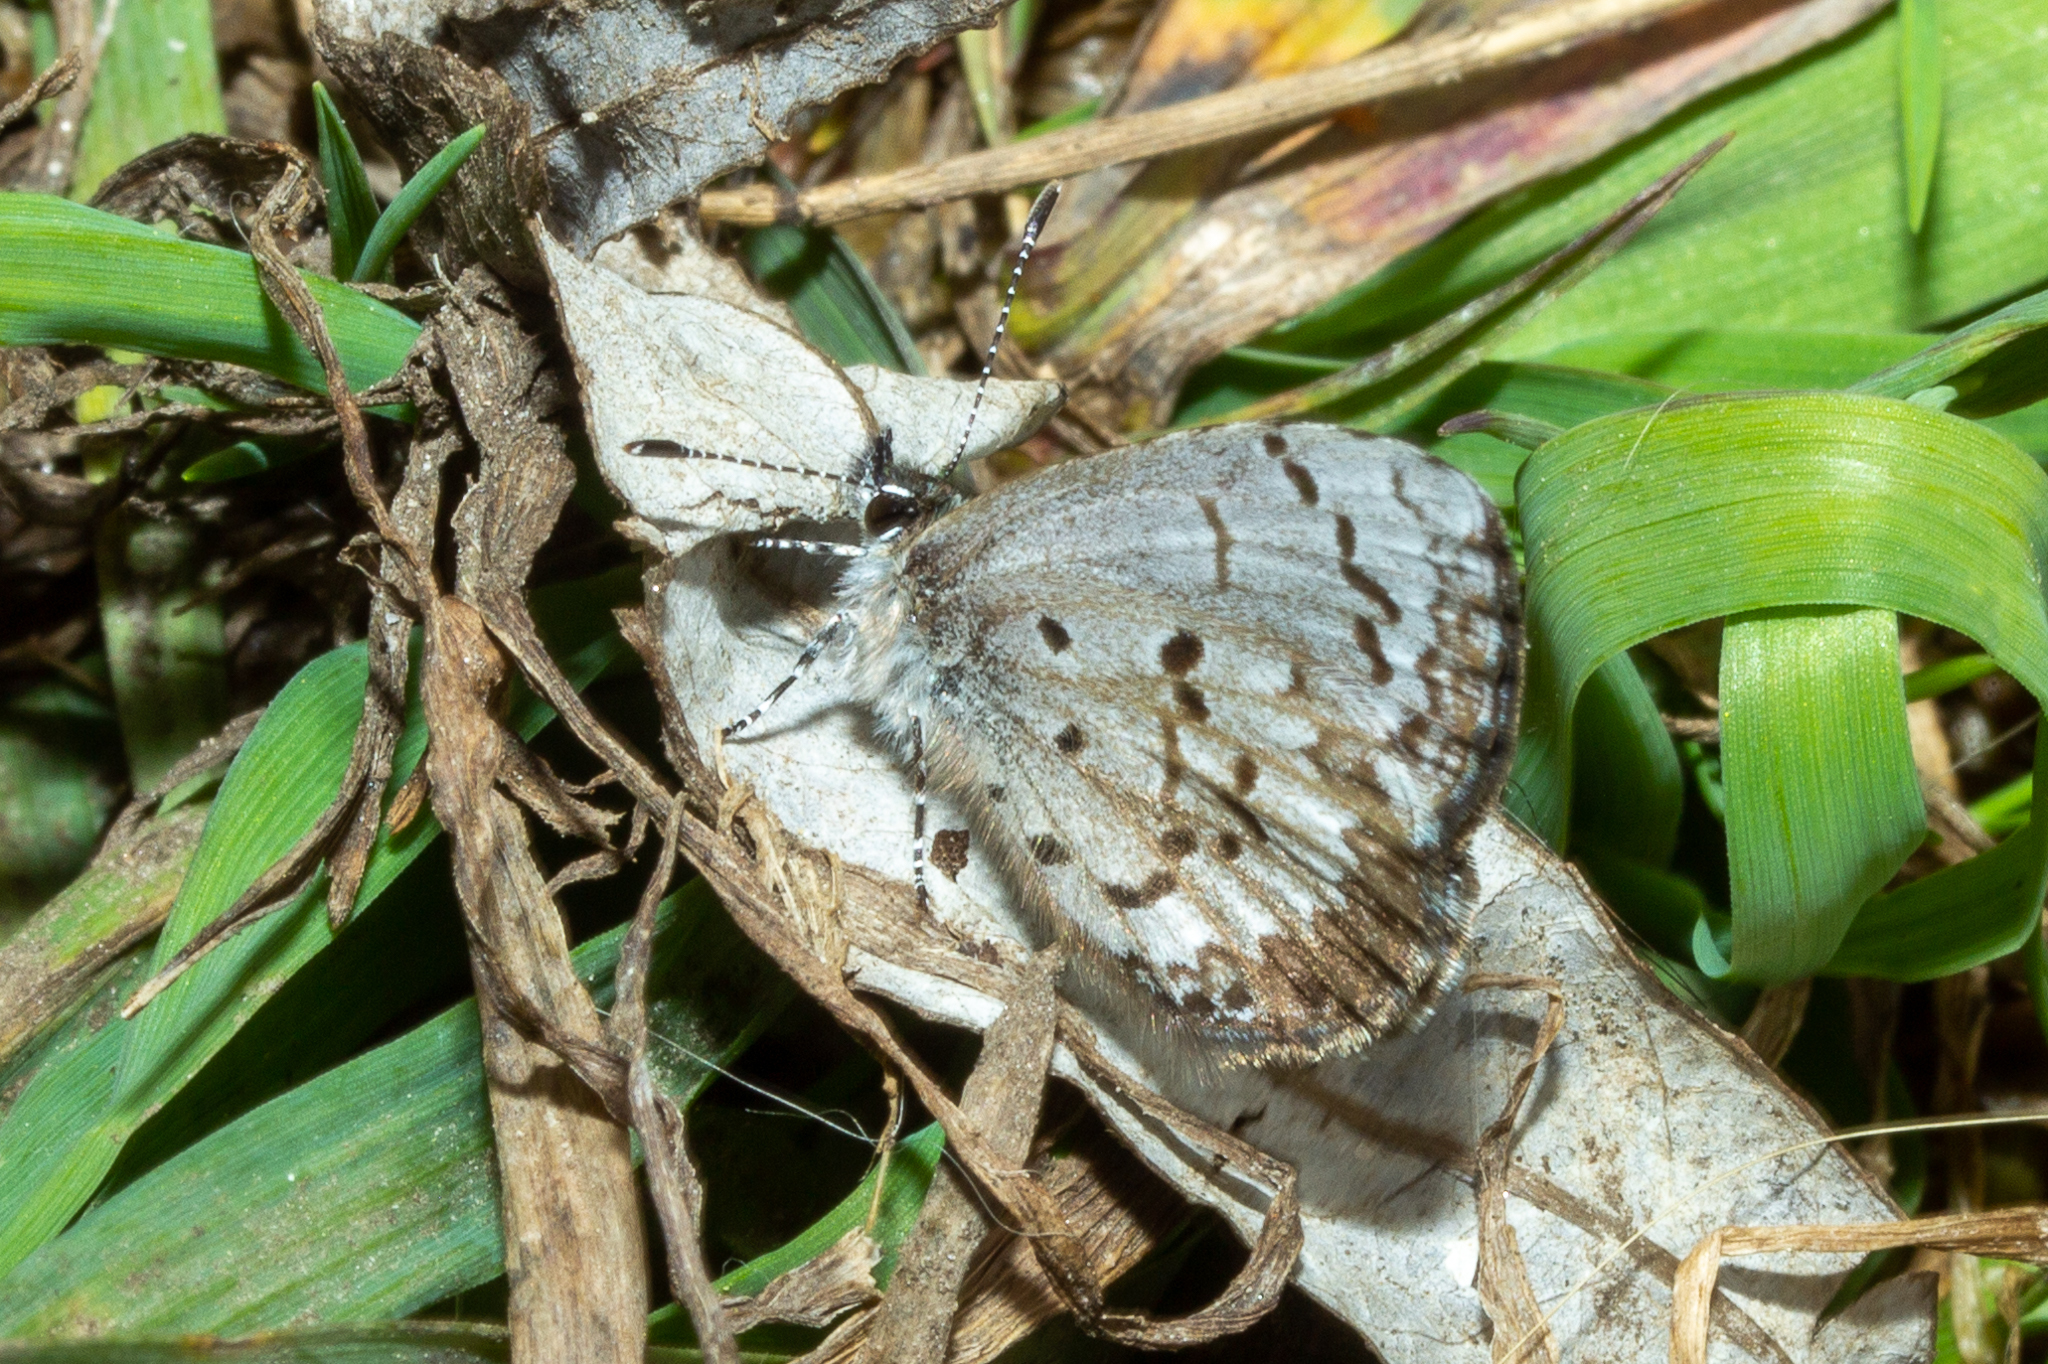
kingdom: Animalia
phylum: Arthropoda
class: Insecta
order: Lepidoptera
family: Lycaenidae
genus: Celastrina
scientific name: Celastrina lucia
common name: Lucia azure
